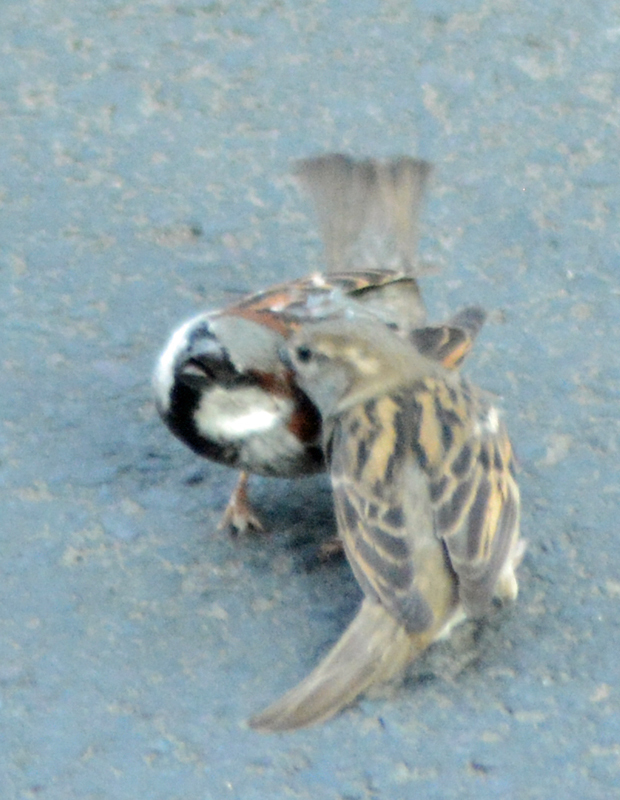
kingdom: Animalia
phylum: Chordata
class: Aves
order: Passeriformes
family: Passeridae
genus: Passer
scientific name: Passer domesticus
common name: House sparrow
